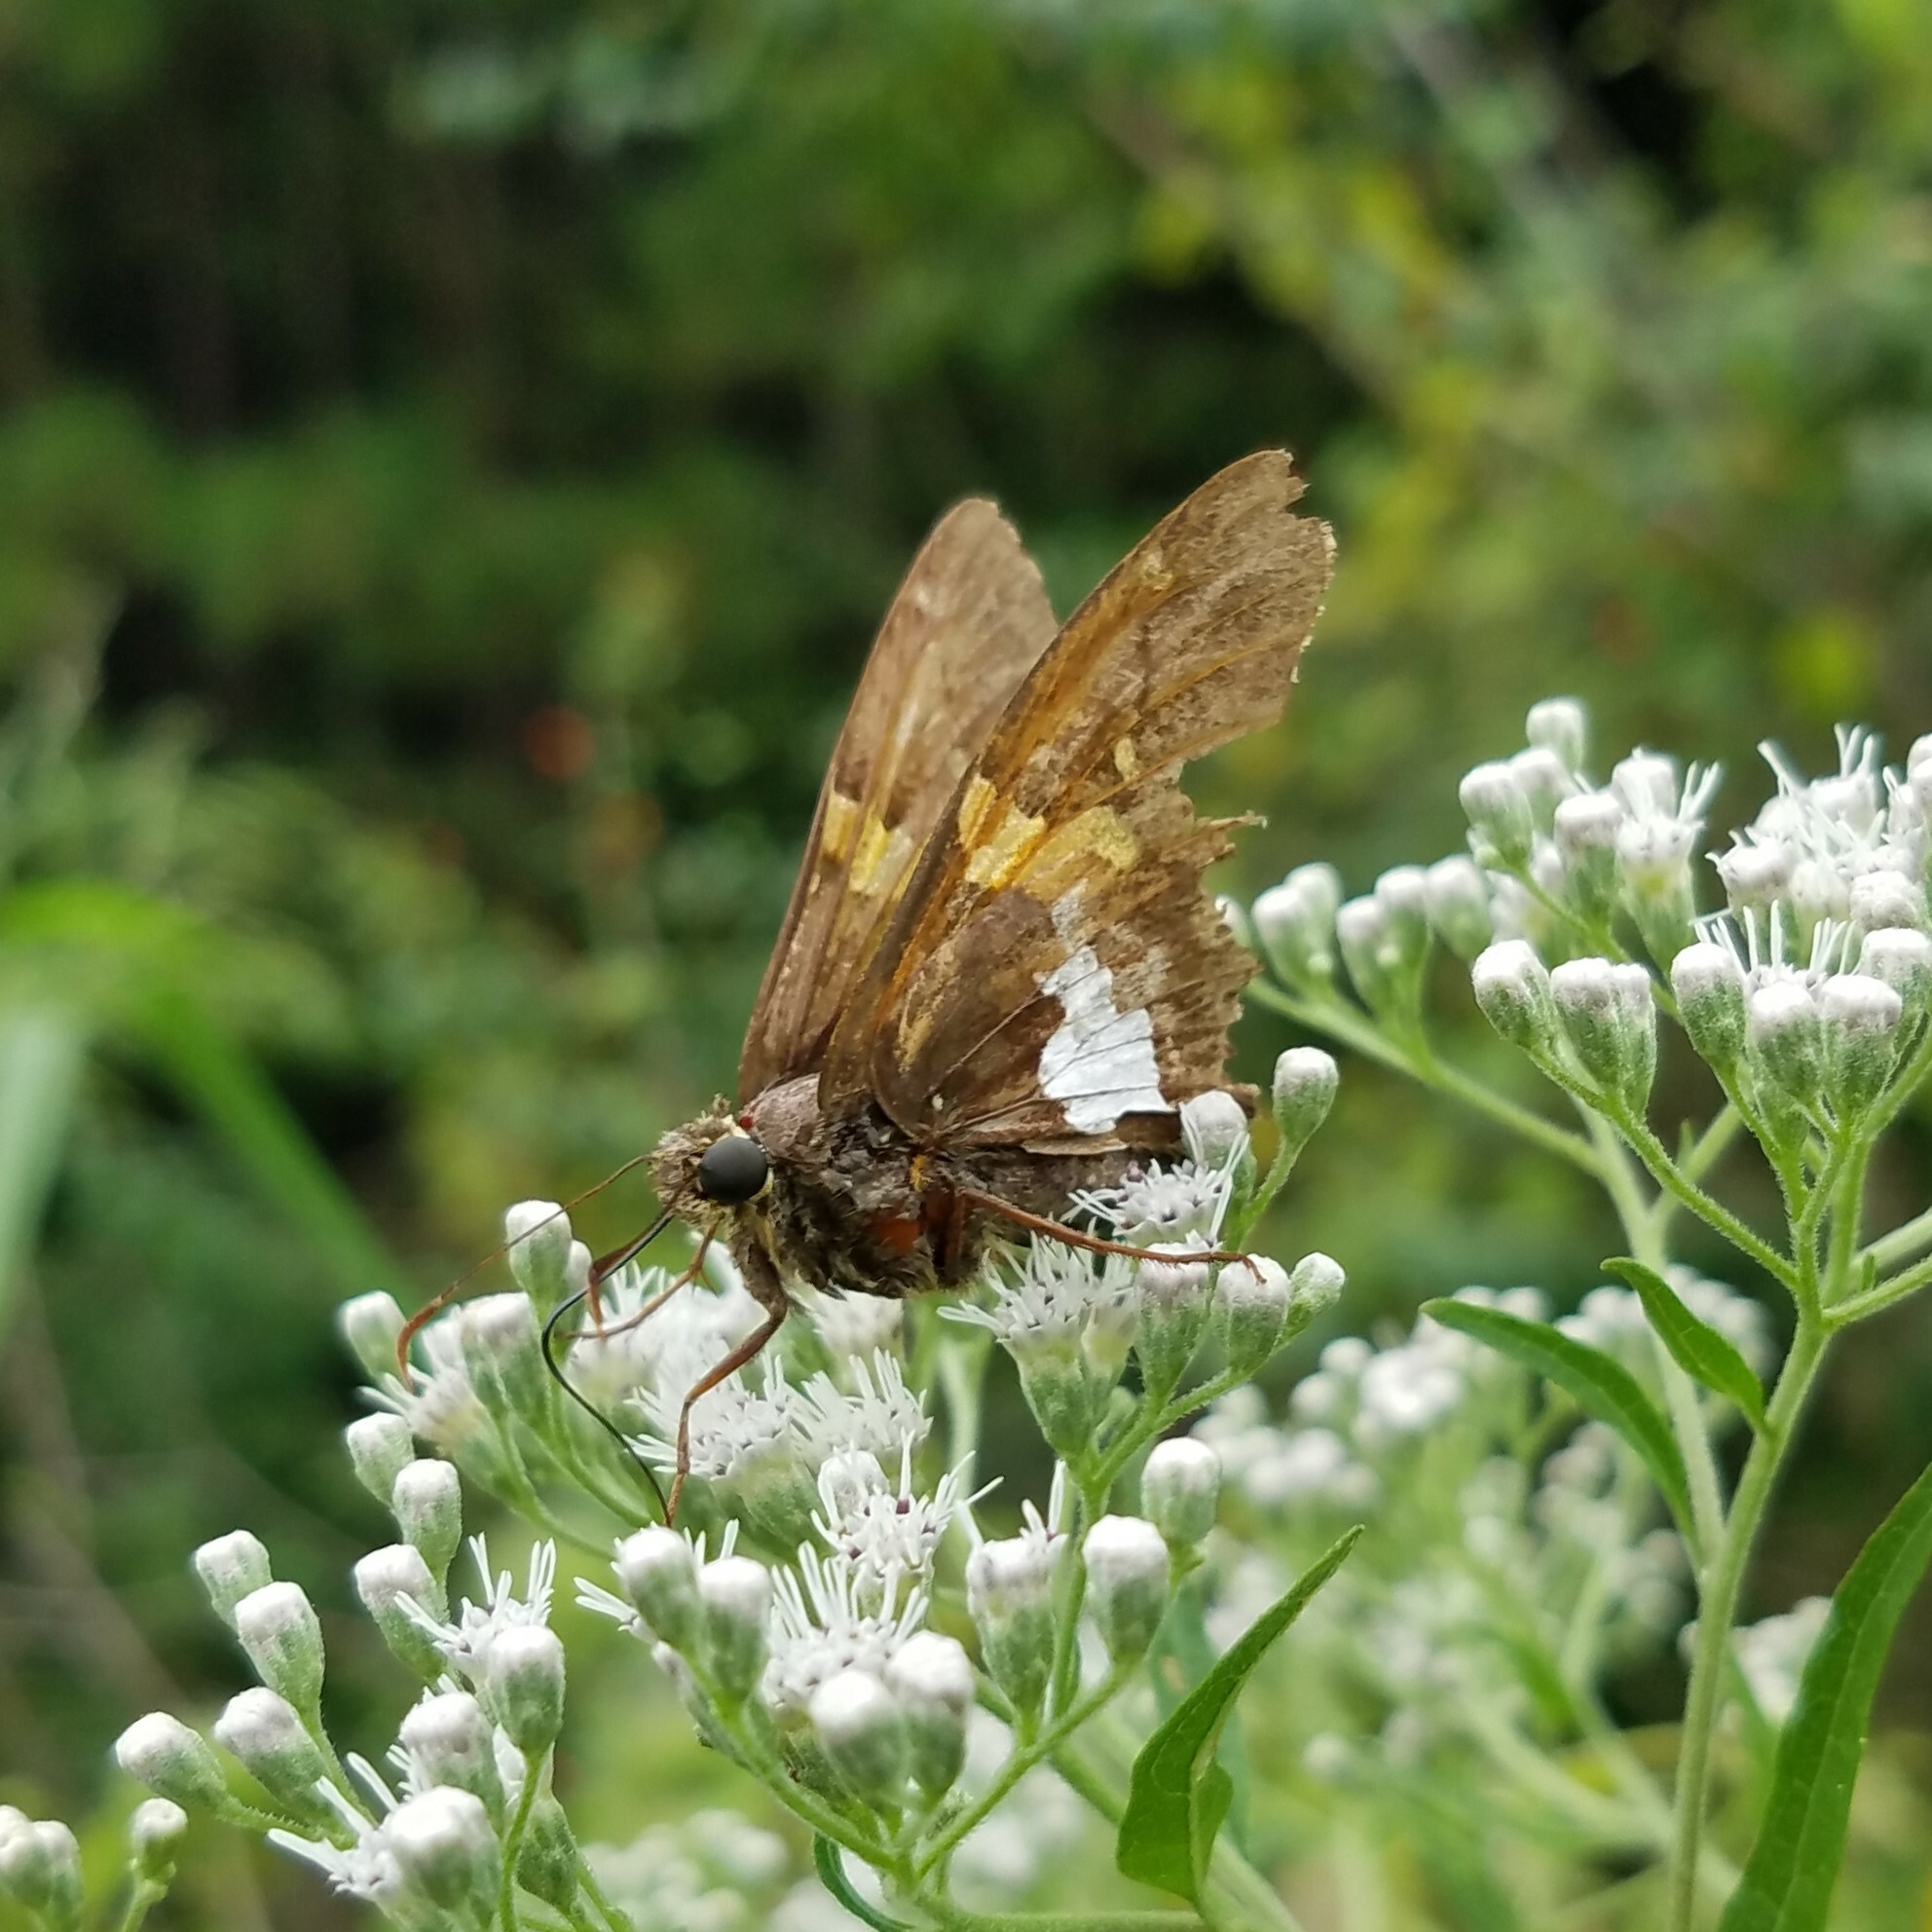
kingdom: Animalia
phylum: Arthropoda
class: Insecta
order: Lepidoptera
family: Hesperiidae
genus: Epargyreus
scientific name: Epargyreus clarus
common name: Silver-spotted skipper
